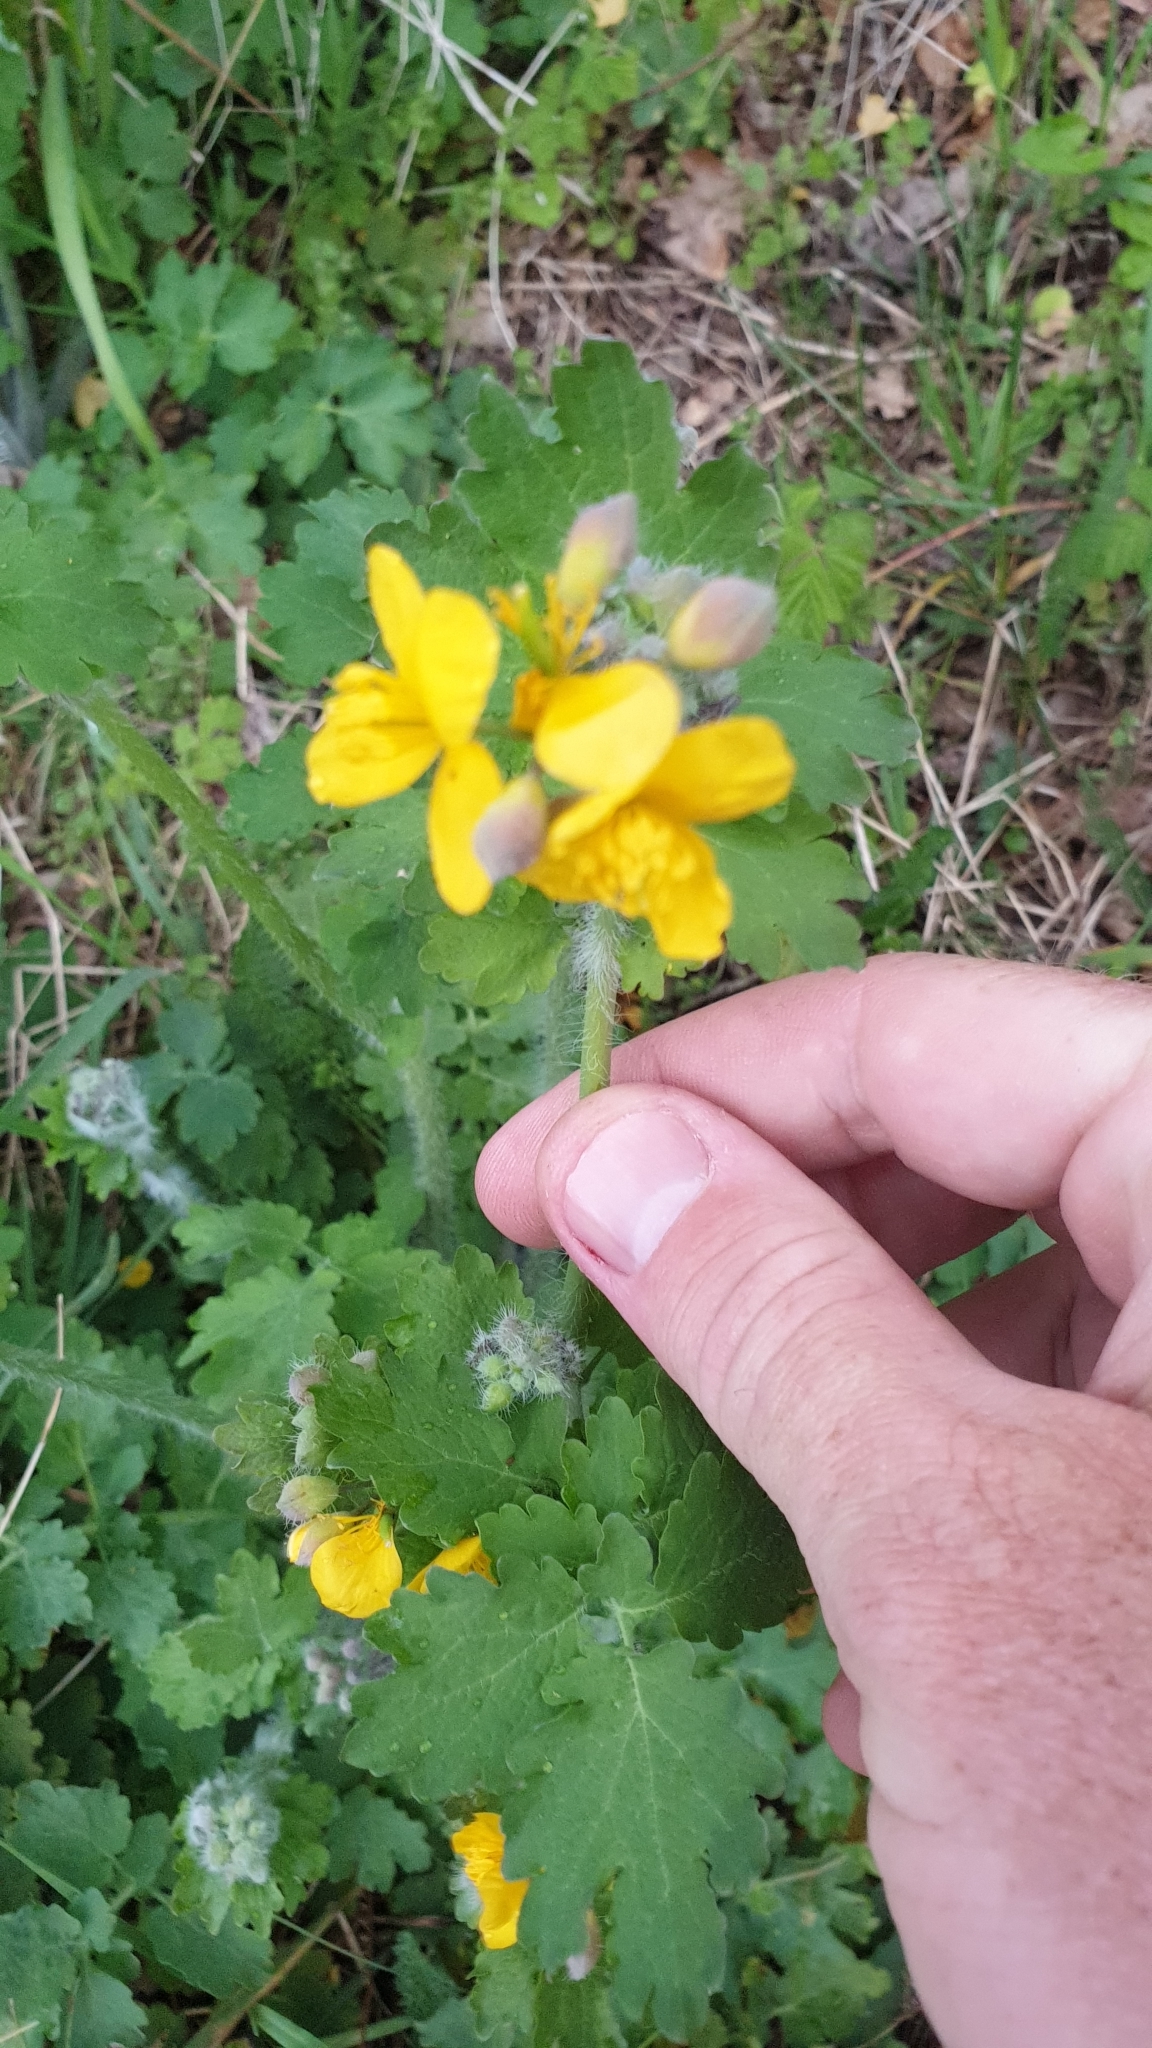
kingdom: Plantae
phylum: Tracheophyta
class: Magnoliopsida
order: Ranunculales
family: Papaveraceae
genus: Chelidonium
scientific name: Chelidonium majus
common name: Greater celandine
